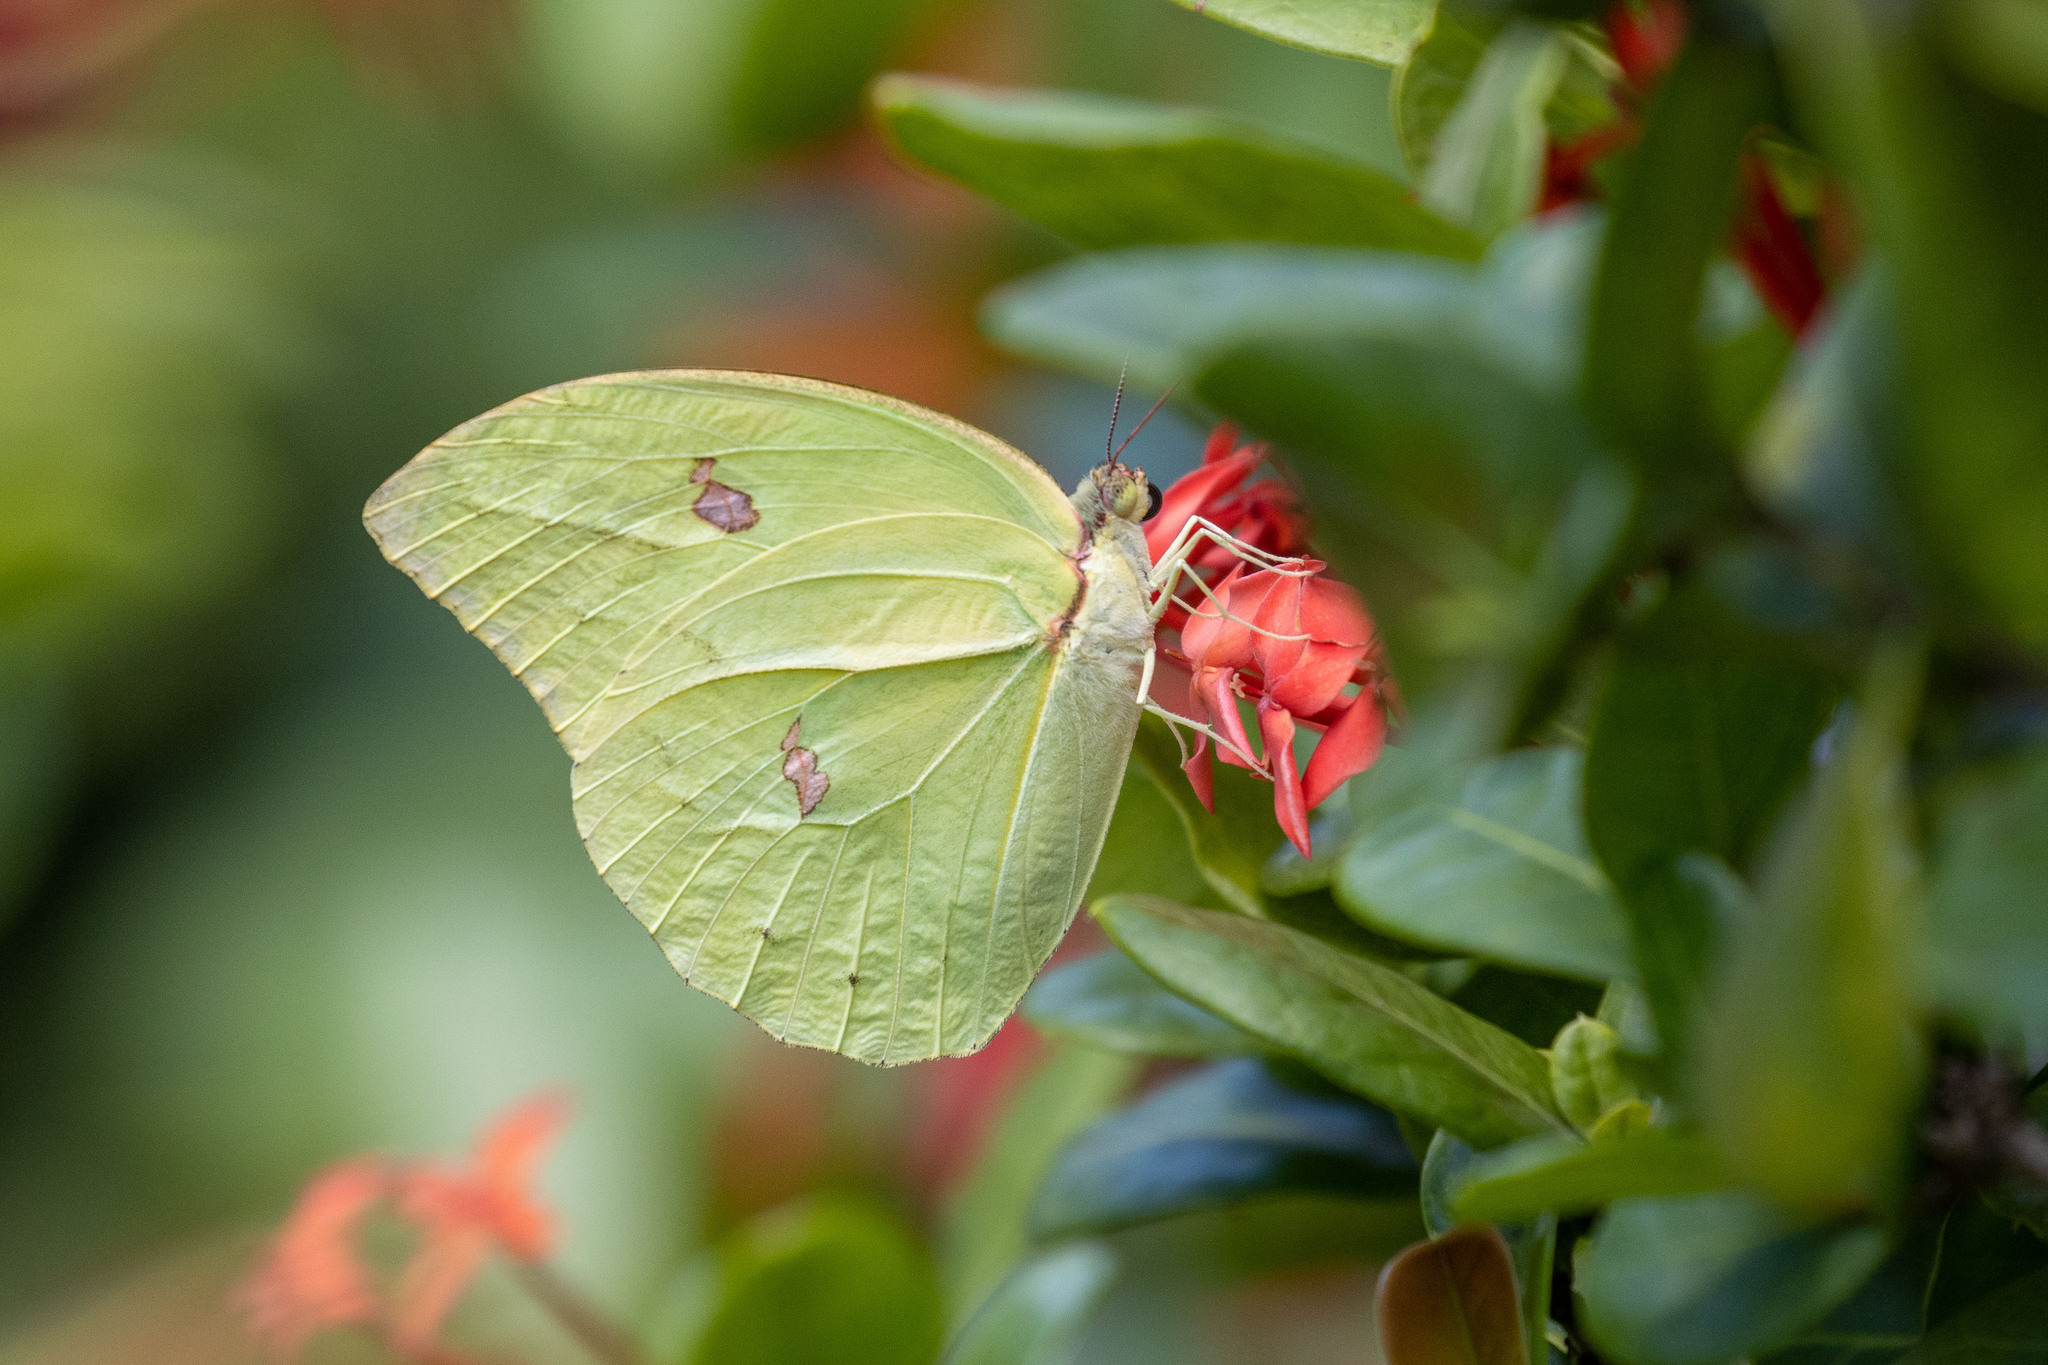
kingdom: Animalia
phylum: Arthropoda
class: Insecta
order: Lepidoptera
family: Pieridae
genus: Anteos
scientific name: Anteos menippe
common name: Orangetip angled-sulphur
